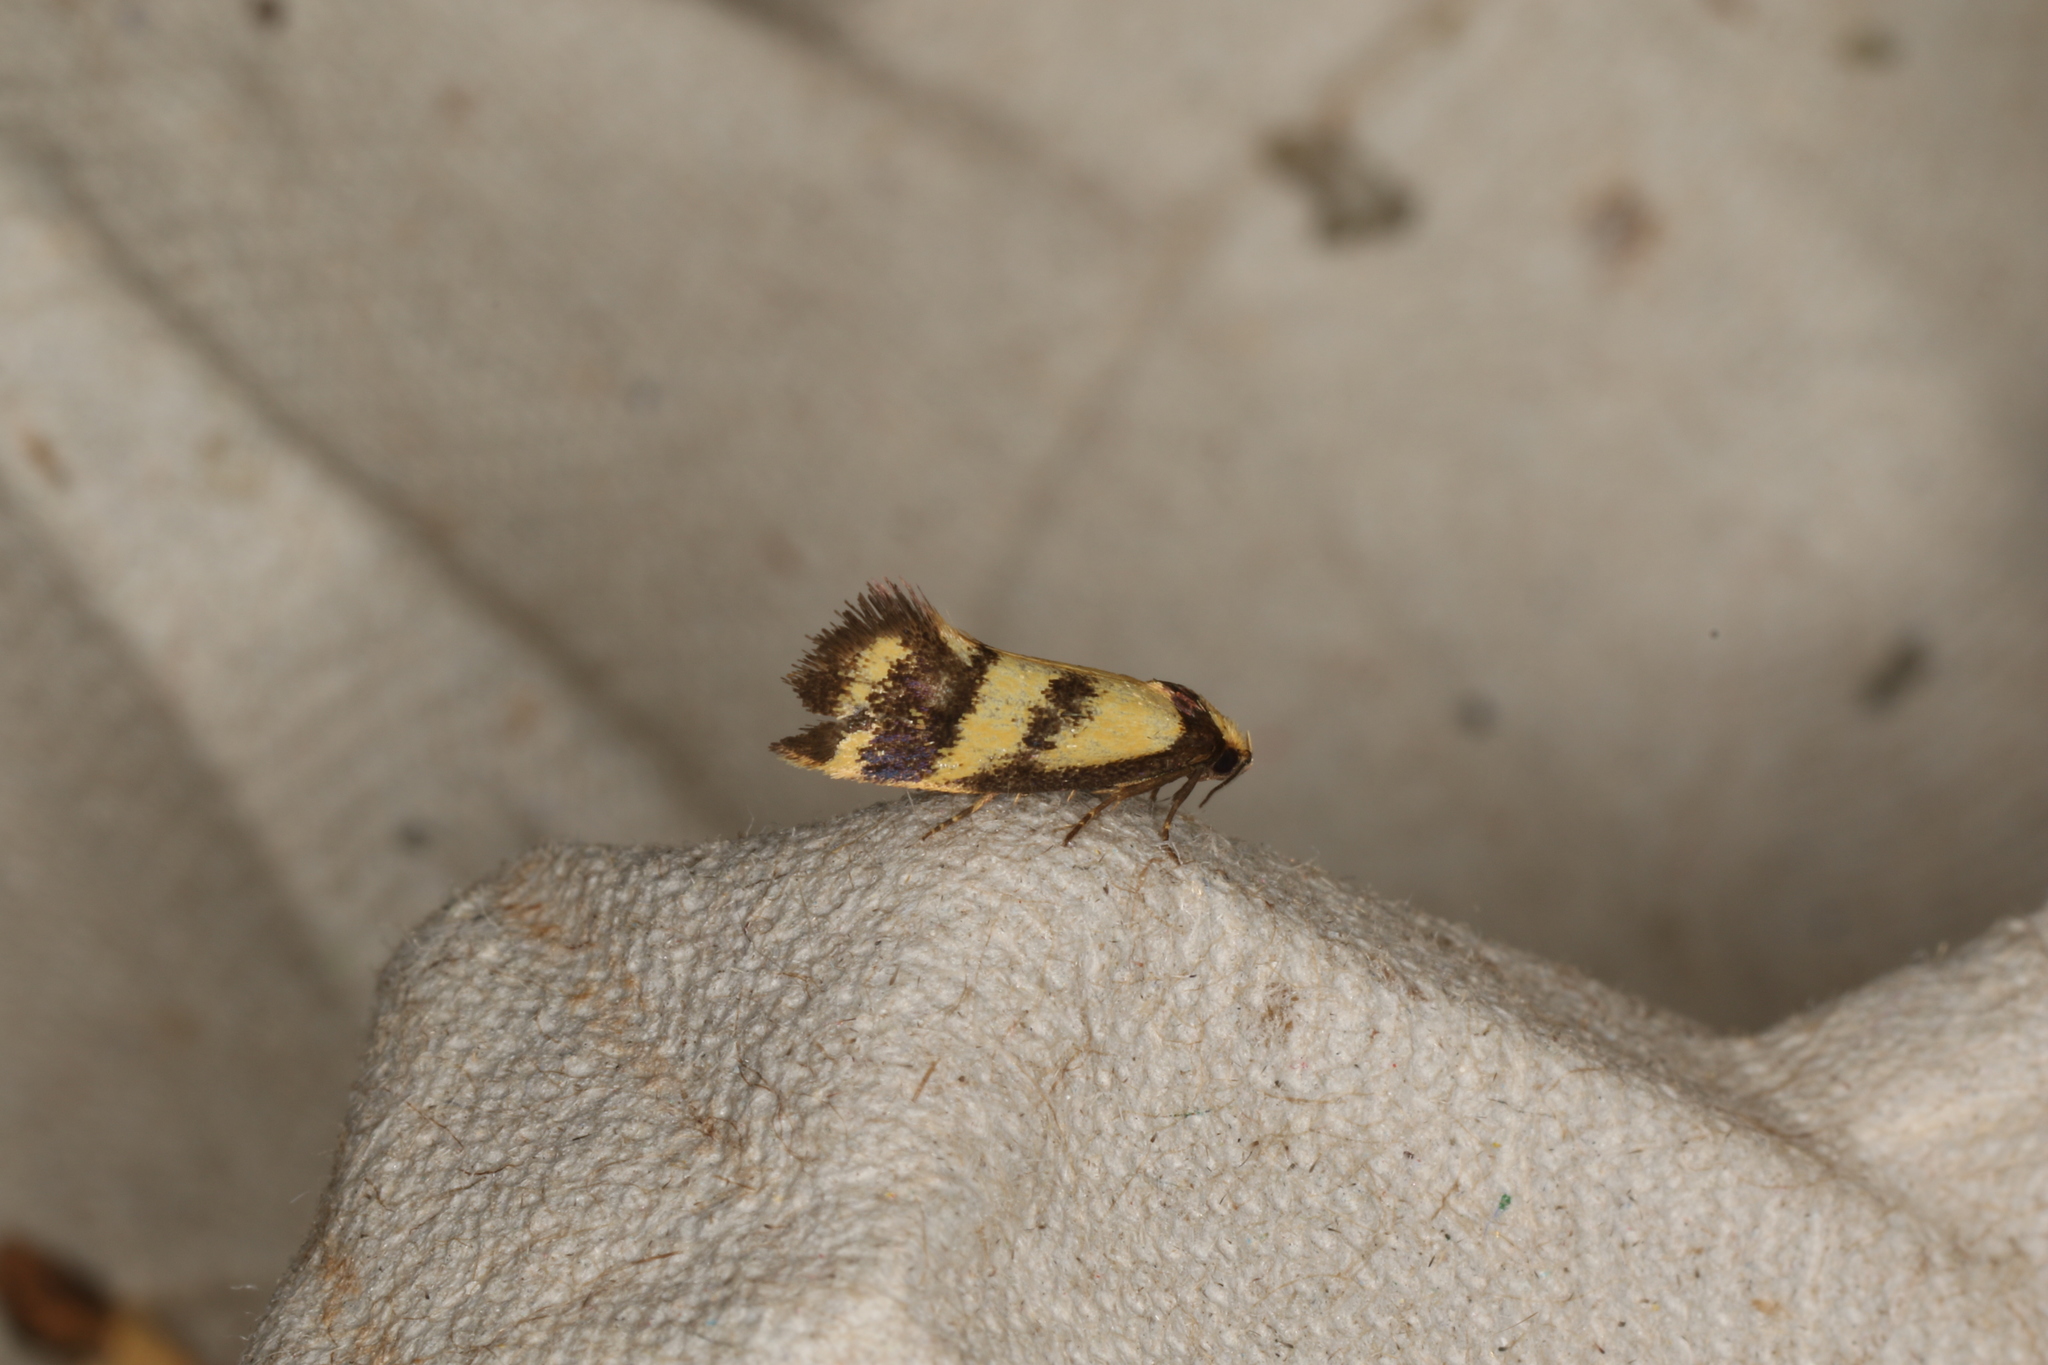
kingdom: Animalia
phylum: Arthropoda
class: Insecta
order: Lepidoptera
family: Oecophoridae
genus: Olbonoma
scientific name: Olbonoma triptycha
